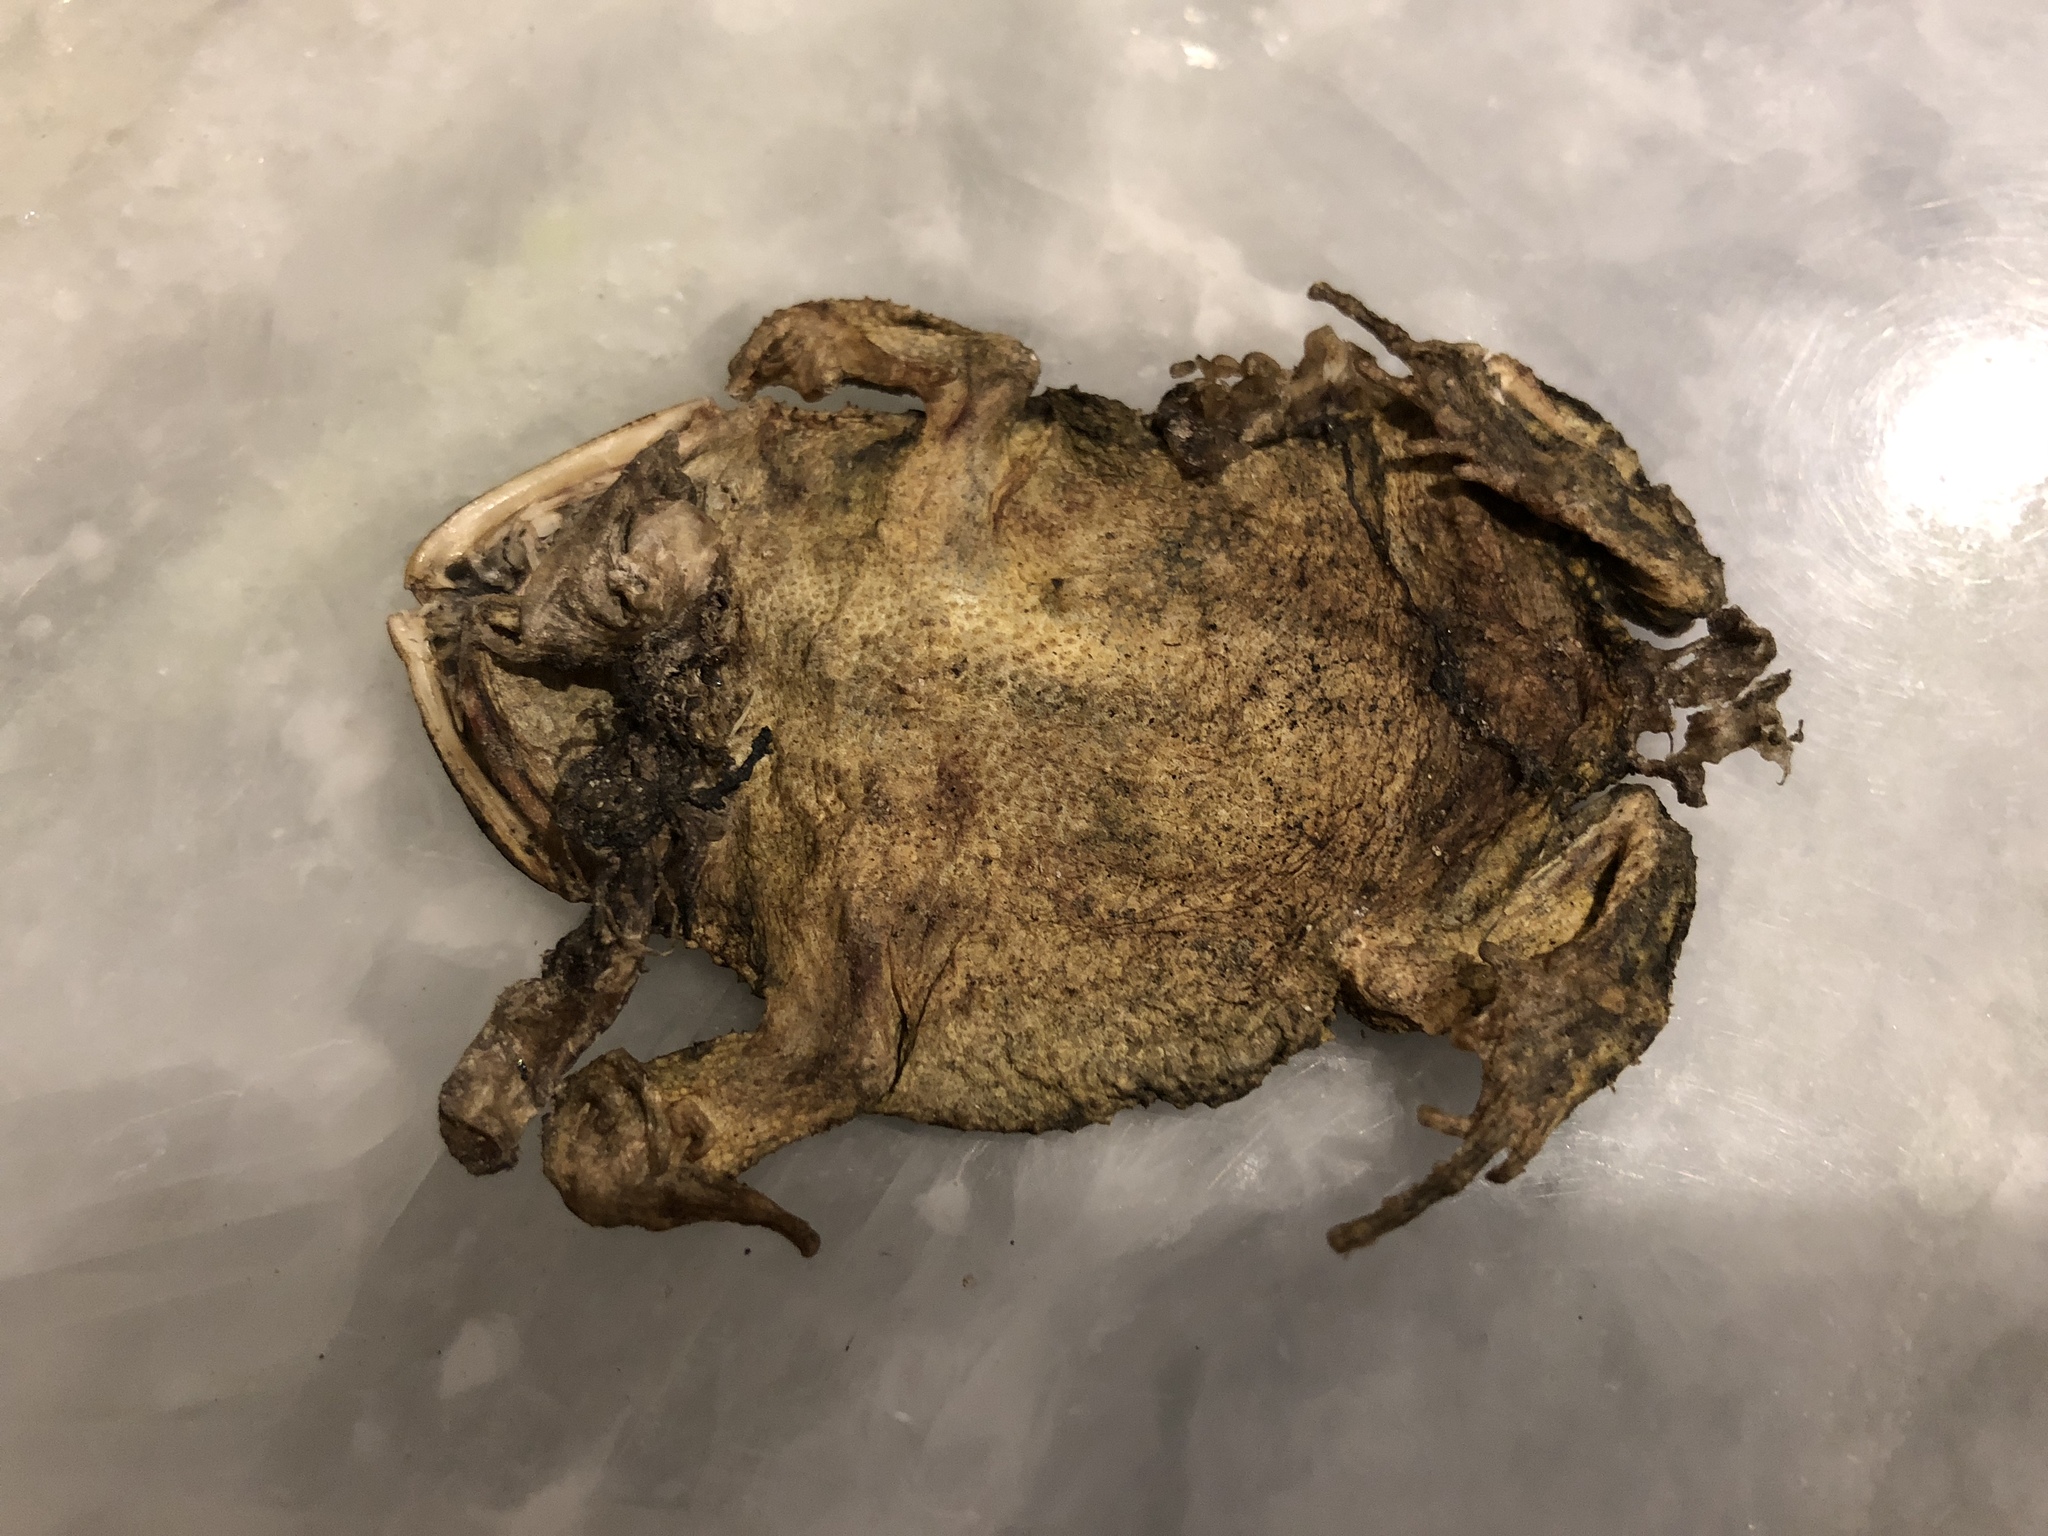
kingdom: Animalia
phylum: Chordata
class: Amphibia
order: Anura
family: Bufonidae
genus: Incilius
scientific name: Incilius nebulifer
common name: Gulf coast toad
